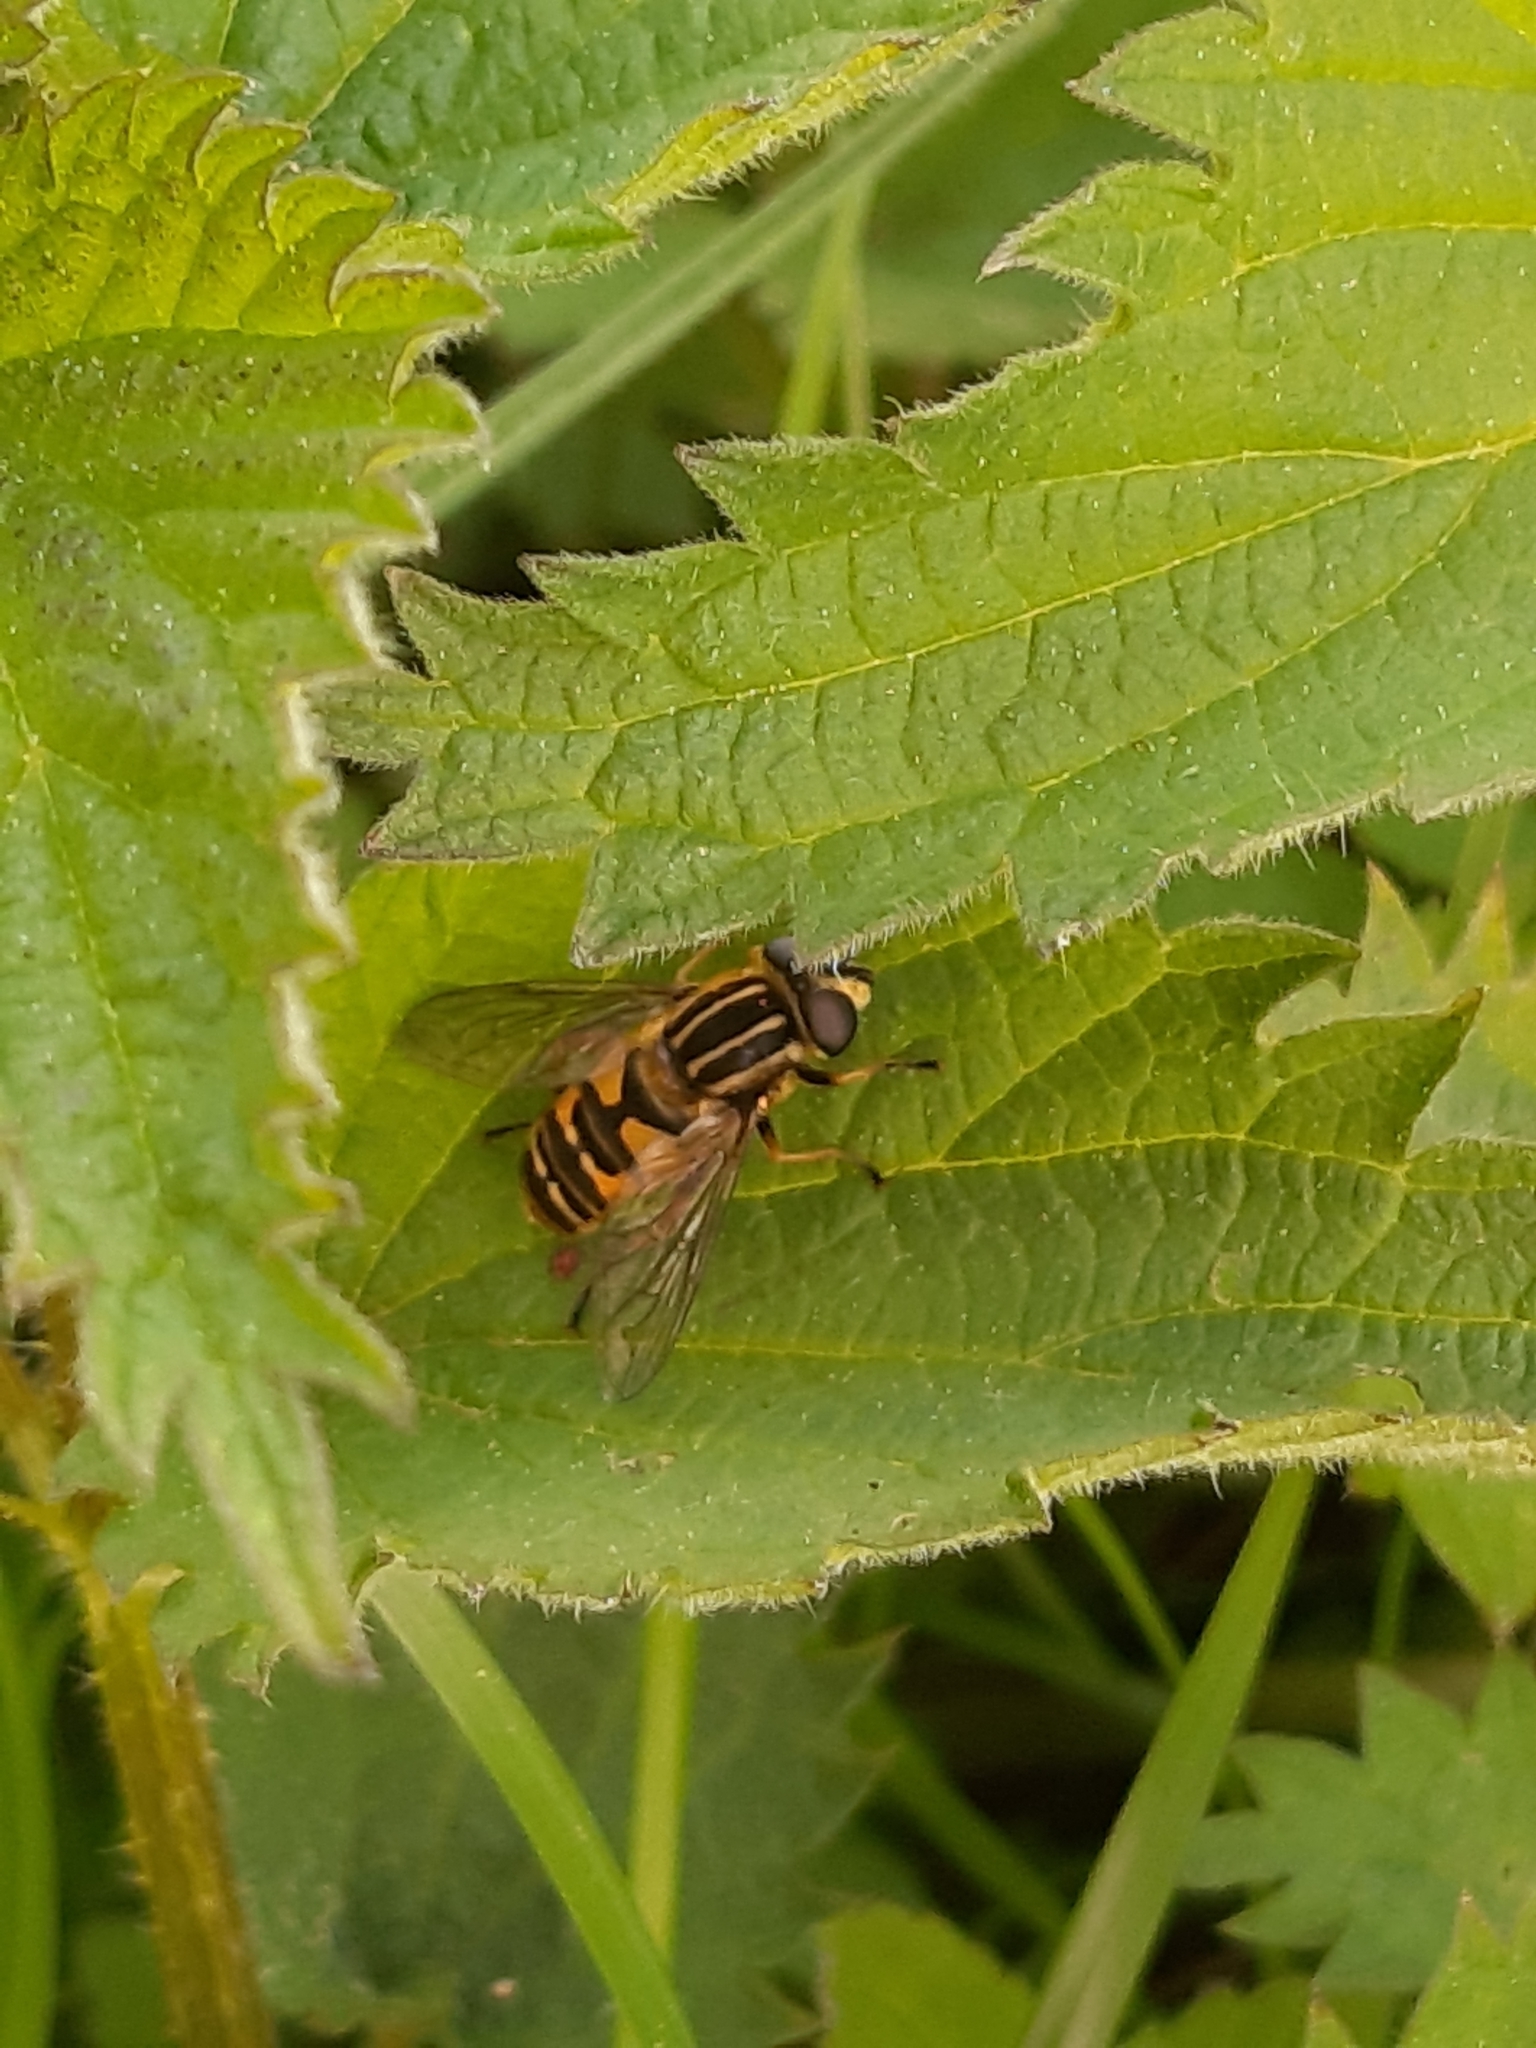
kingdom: Animalia
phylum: Arthropoda
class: Insecta
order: Diptera
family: Syrphidae
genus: Helophilus
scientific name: Helophilus pendulus
